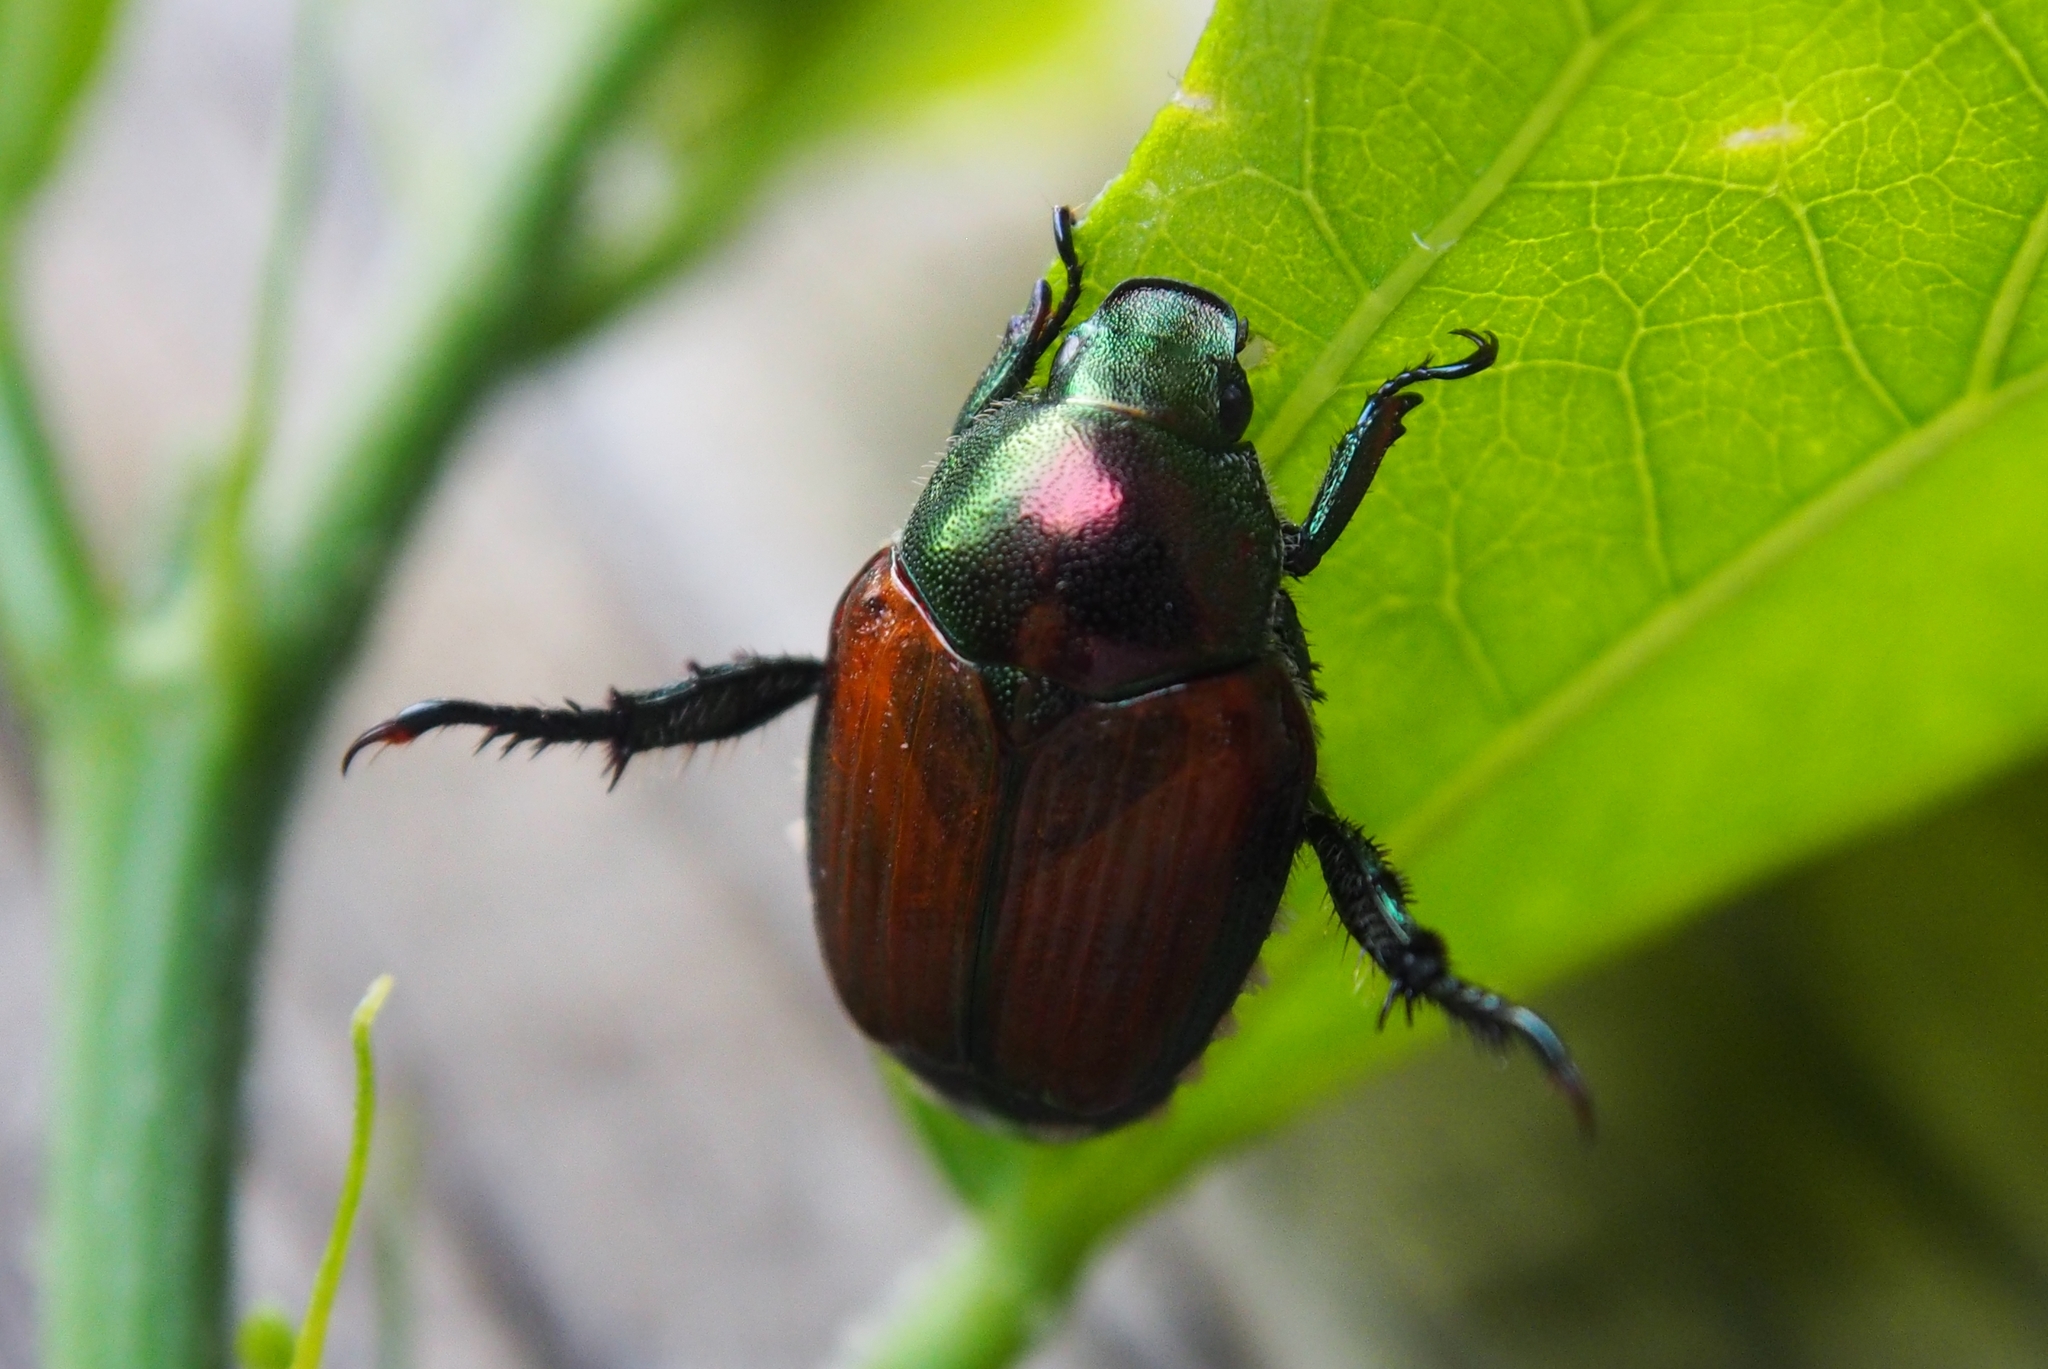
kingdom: Animalia
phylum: Arthropoda
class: Insecta
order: Coleoptera
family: Scarabaeidae
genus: Popillia
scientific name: Popillia japonica
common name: Japanese beetle
